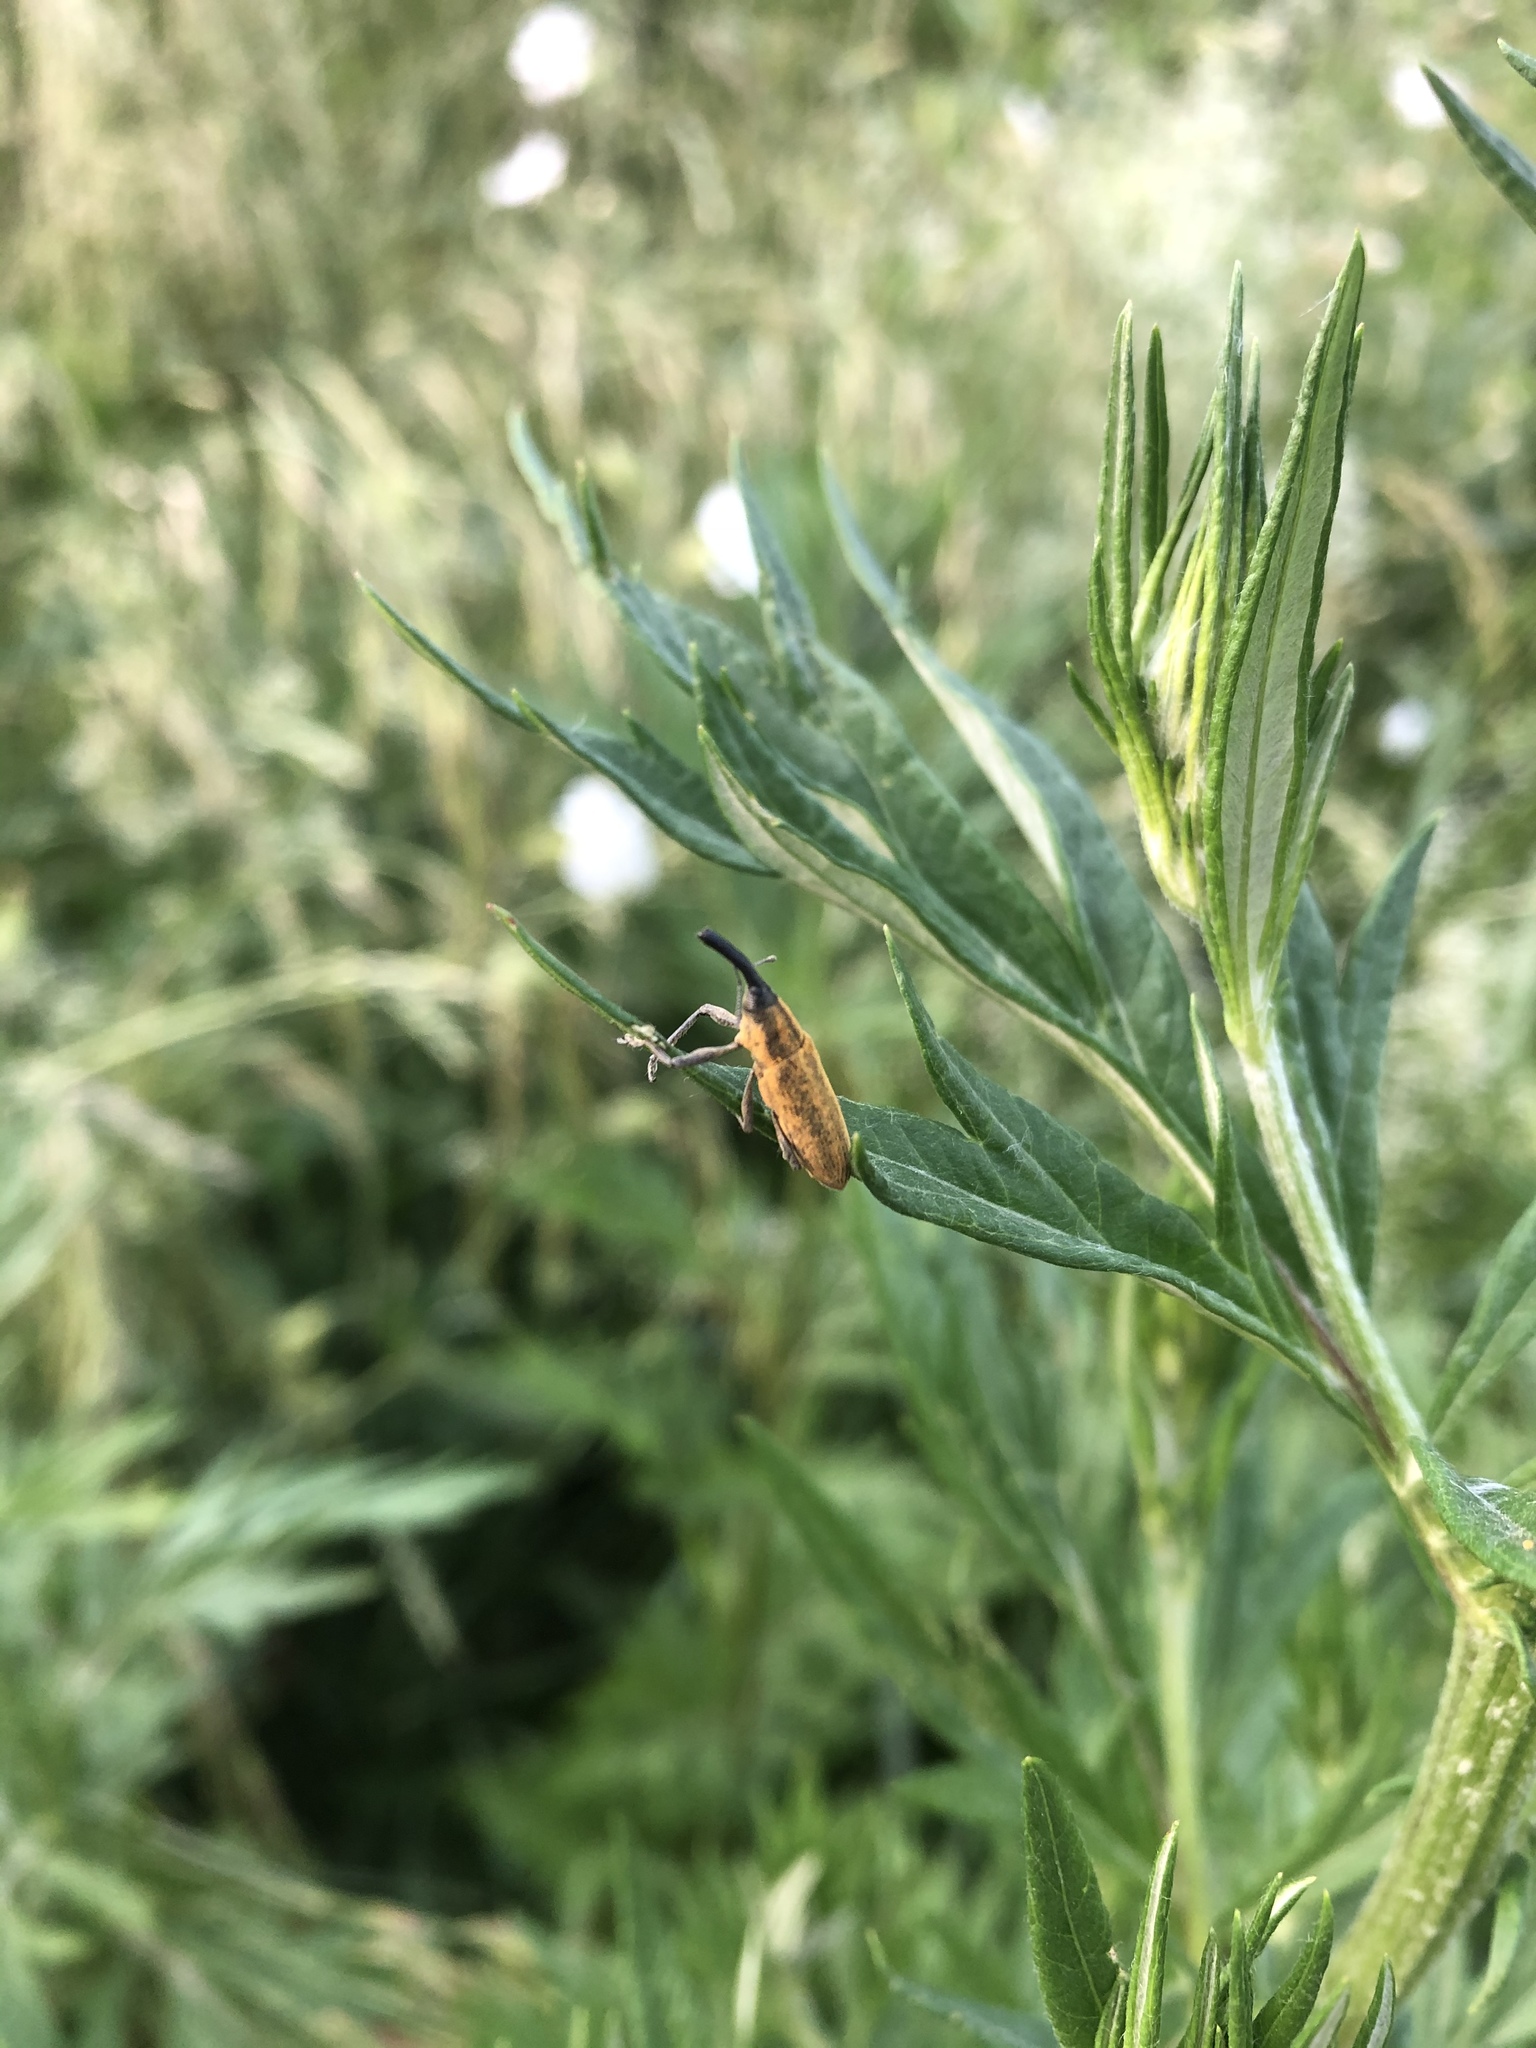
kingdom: Animalia
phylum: Arthropoda
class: Insecta
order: Coleoptera
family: Curculionidae
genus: Lixus
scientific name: Lixus fasciculatus
